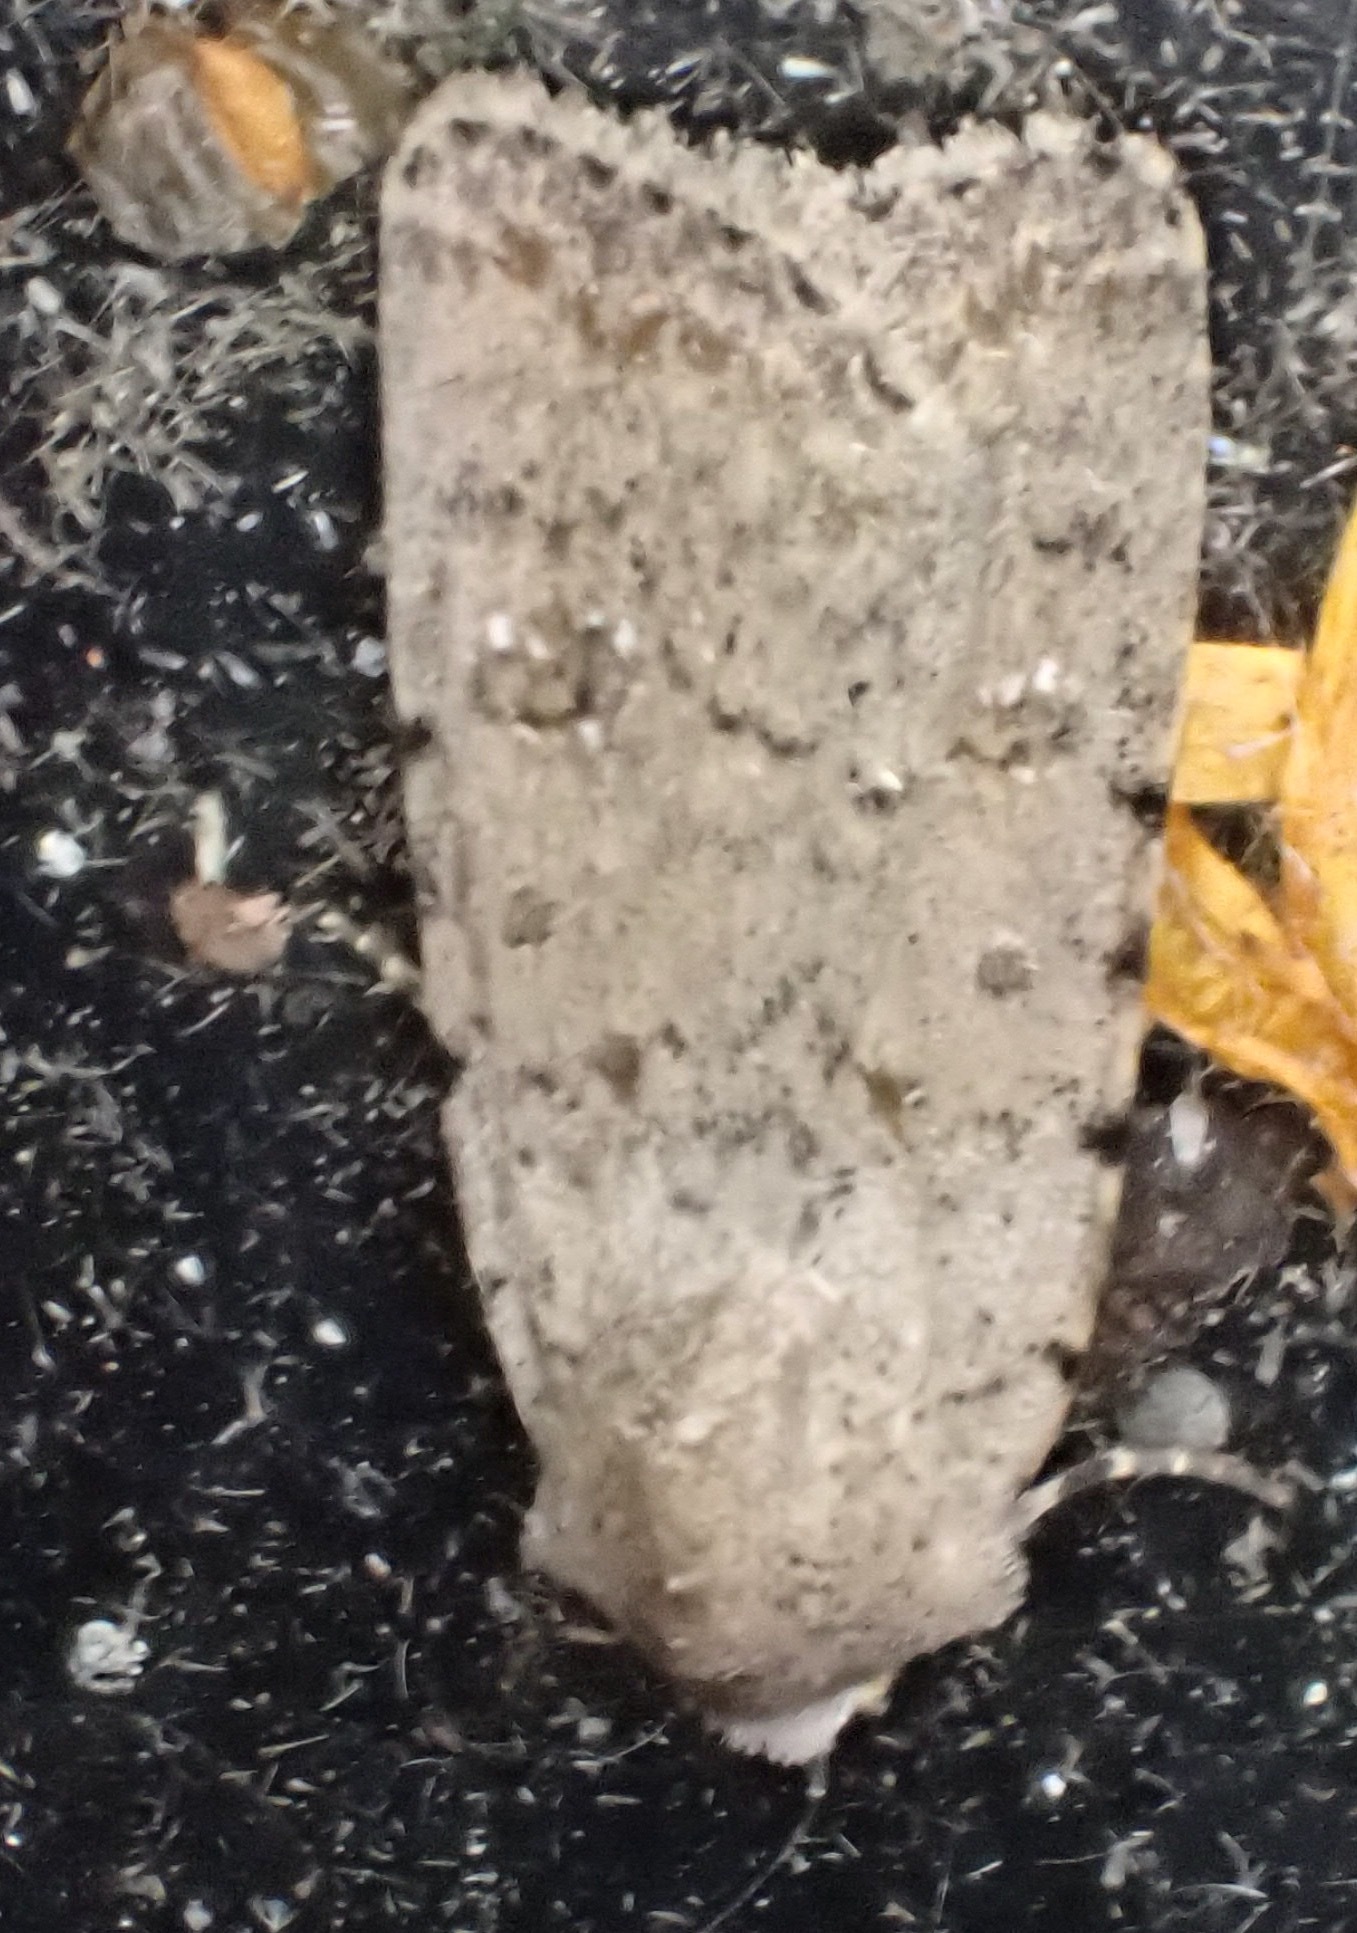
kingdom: Animalia
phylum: Arthropoda
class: Insecta
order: Lepidoptera
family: Noctuidae
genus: Caradrina
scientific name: Caradrina clavipalpis
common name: Pale mottled willow
